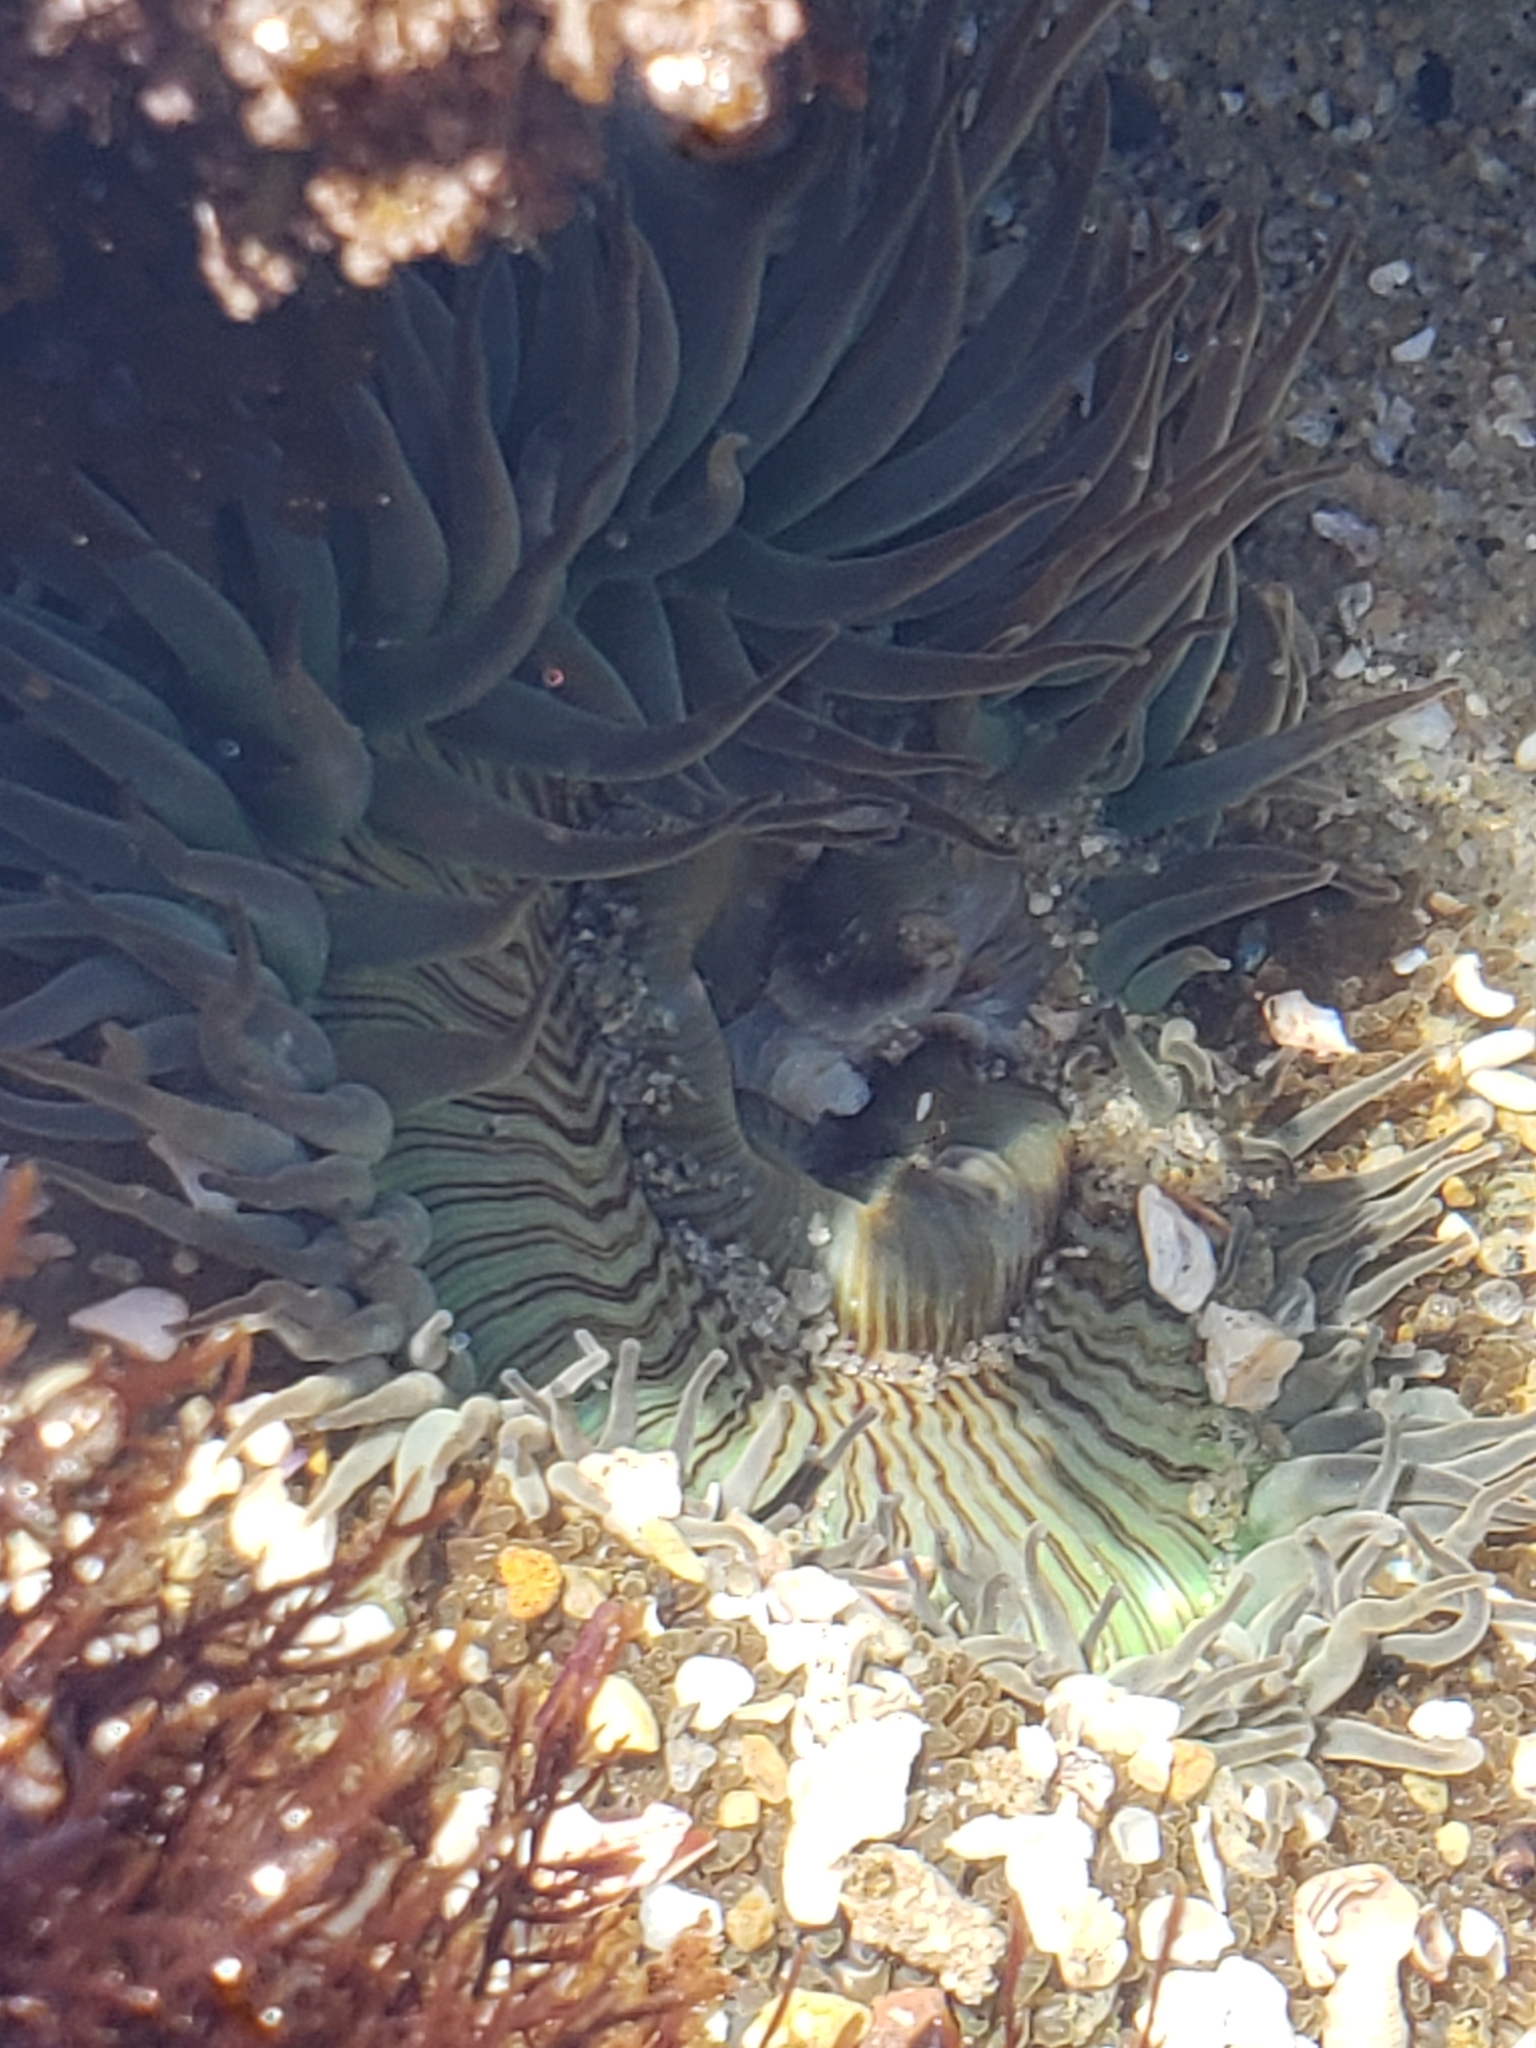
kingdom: Animalia
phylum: Cnidaria
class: Anthozoa
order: Actiniaria
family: Actiniidae
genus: Anthopleura
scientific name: Anthopleura sola
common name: Sun anemone
